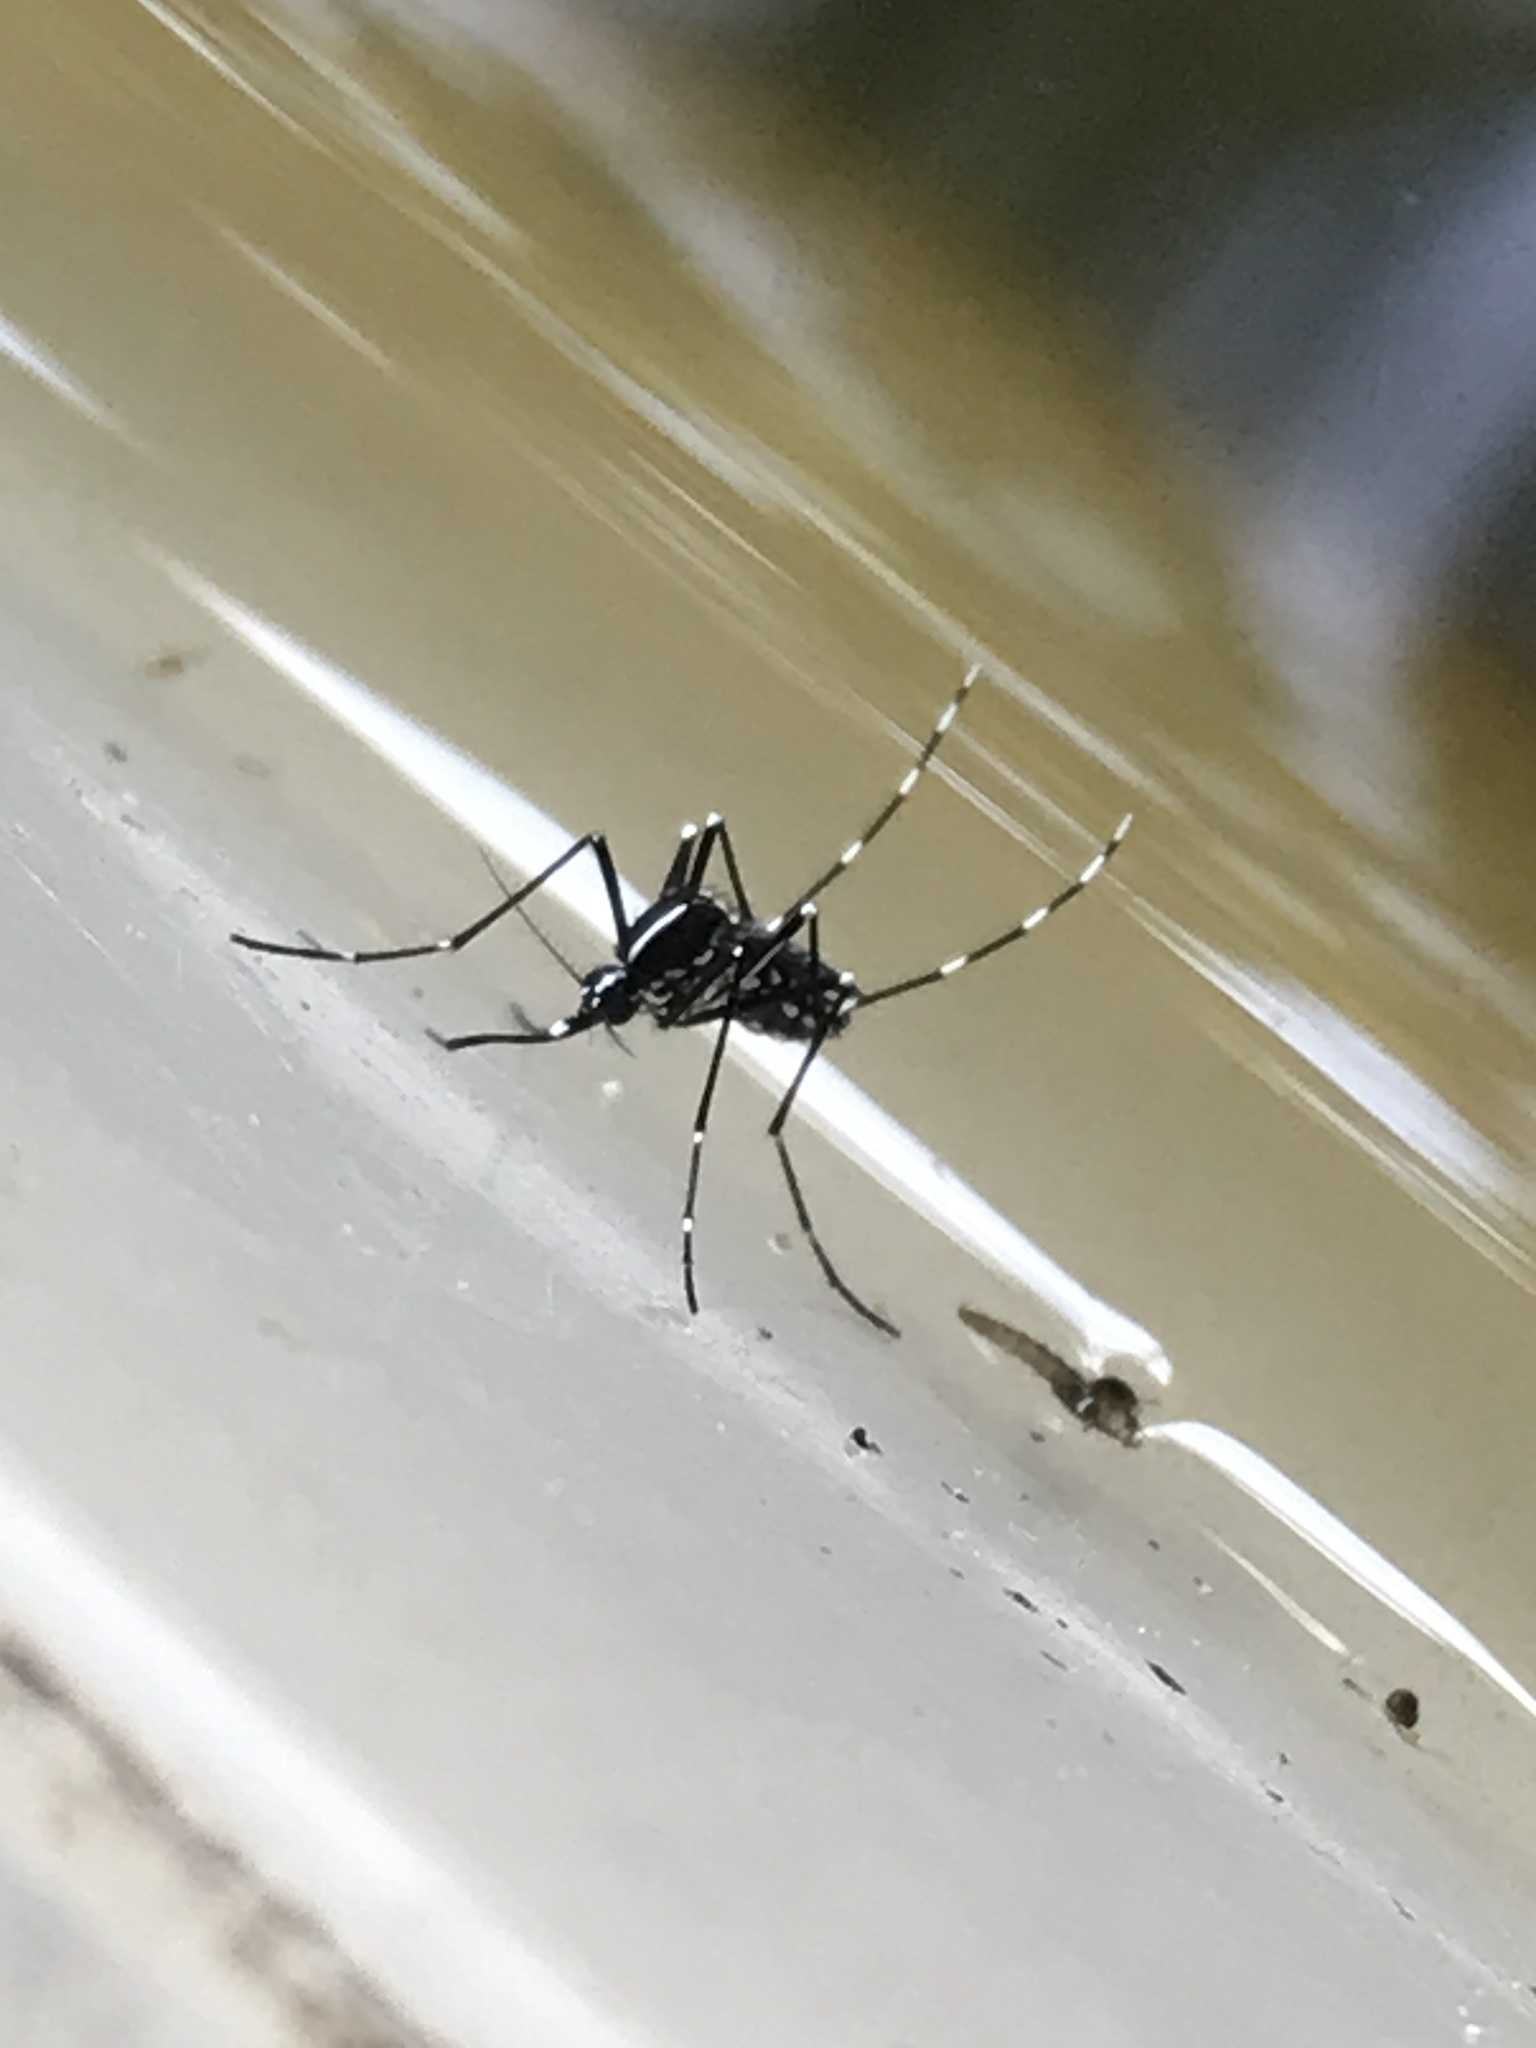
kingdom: Animalia
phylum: Arthropoda
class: Insecta
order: Diptera
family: Culicidae
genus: Aedes
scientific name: Aedes albopictus
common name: Tiger mosquito
